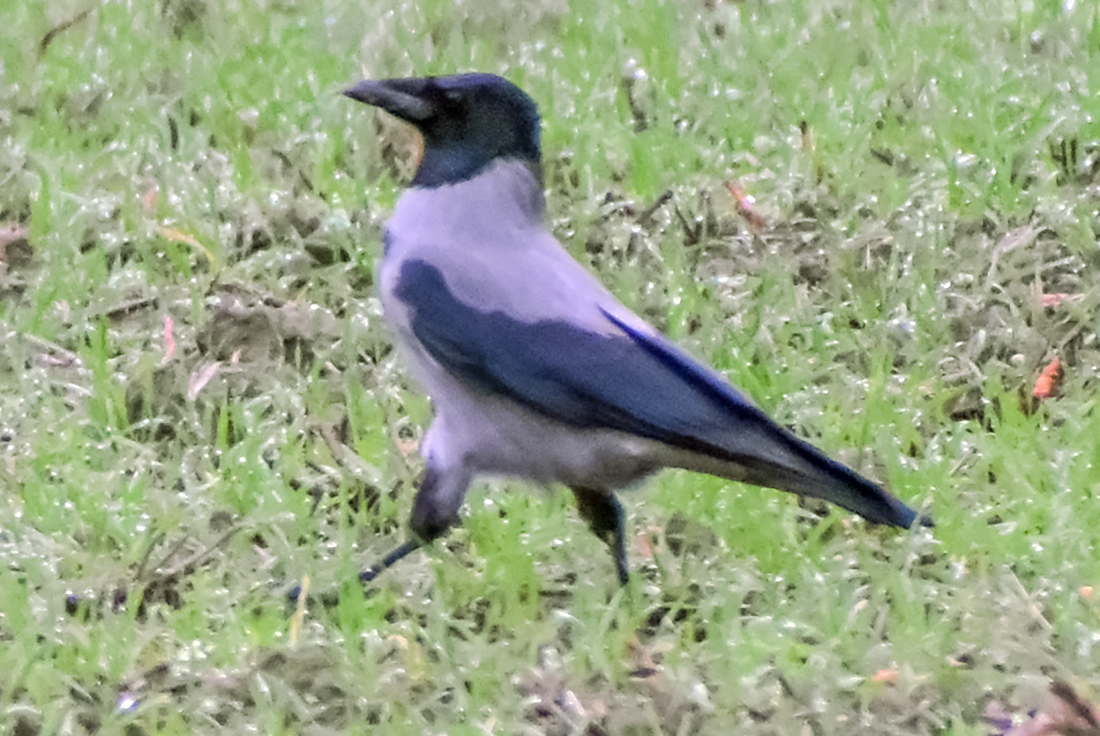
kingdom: Animalia
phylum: Chordata
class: Aves
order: Passeriformes
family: Corvidae
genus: Corvus
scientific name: Corvus cornix
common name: Hooded crow
